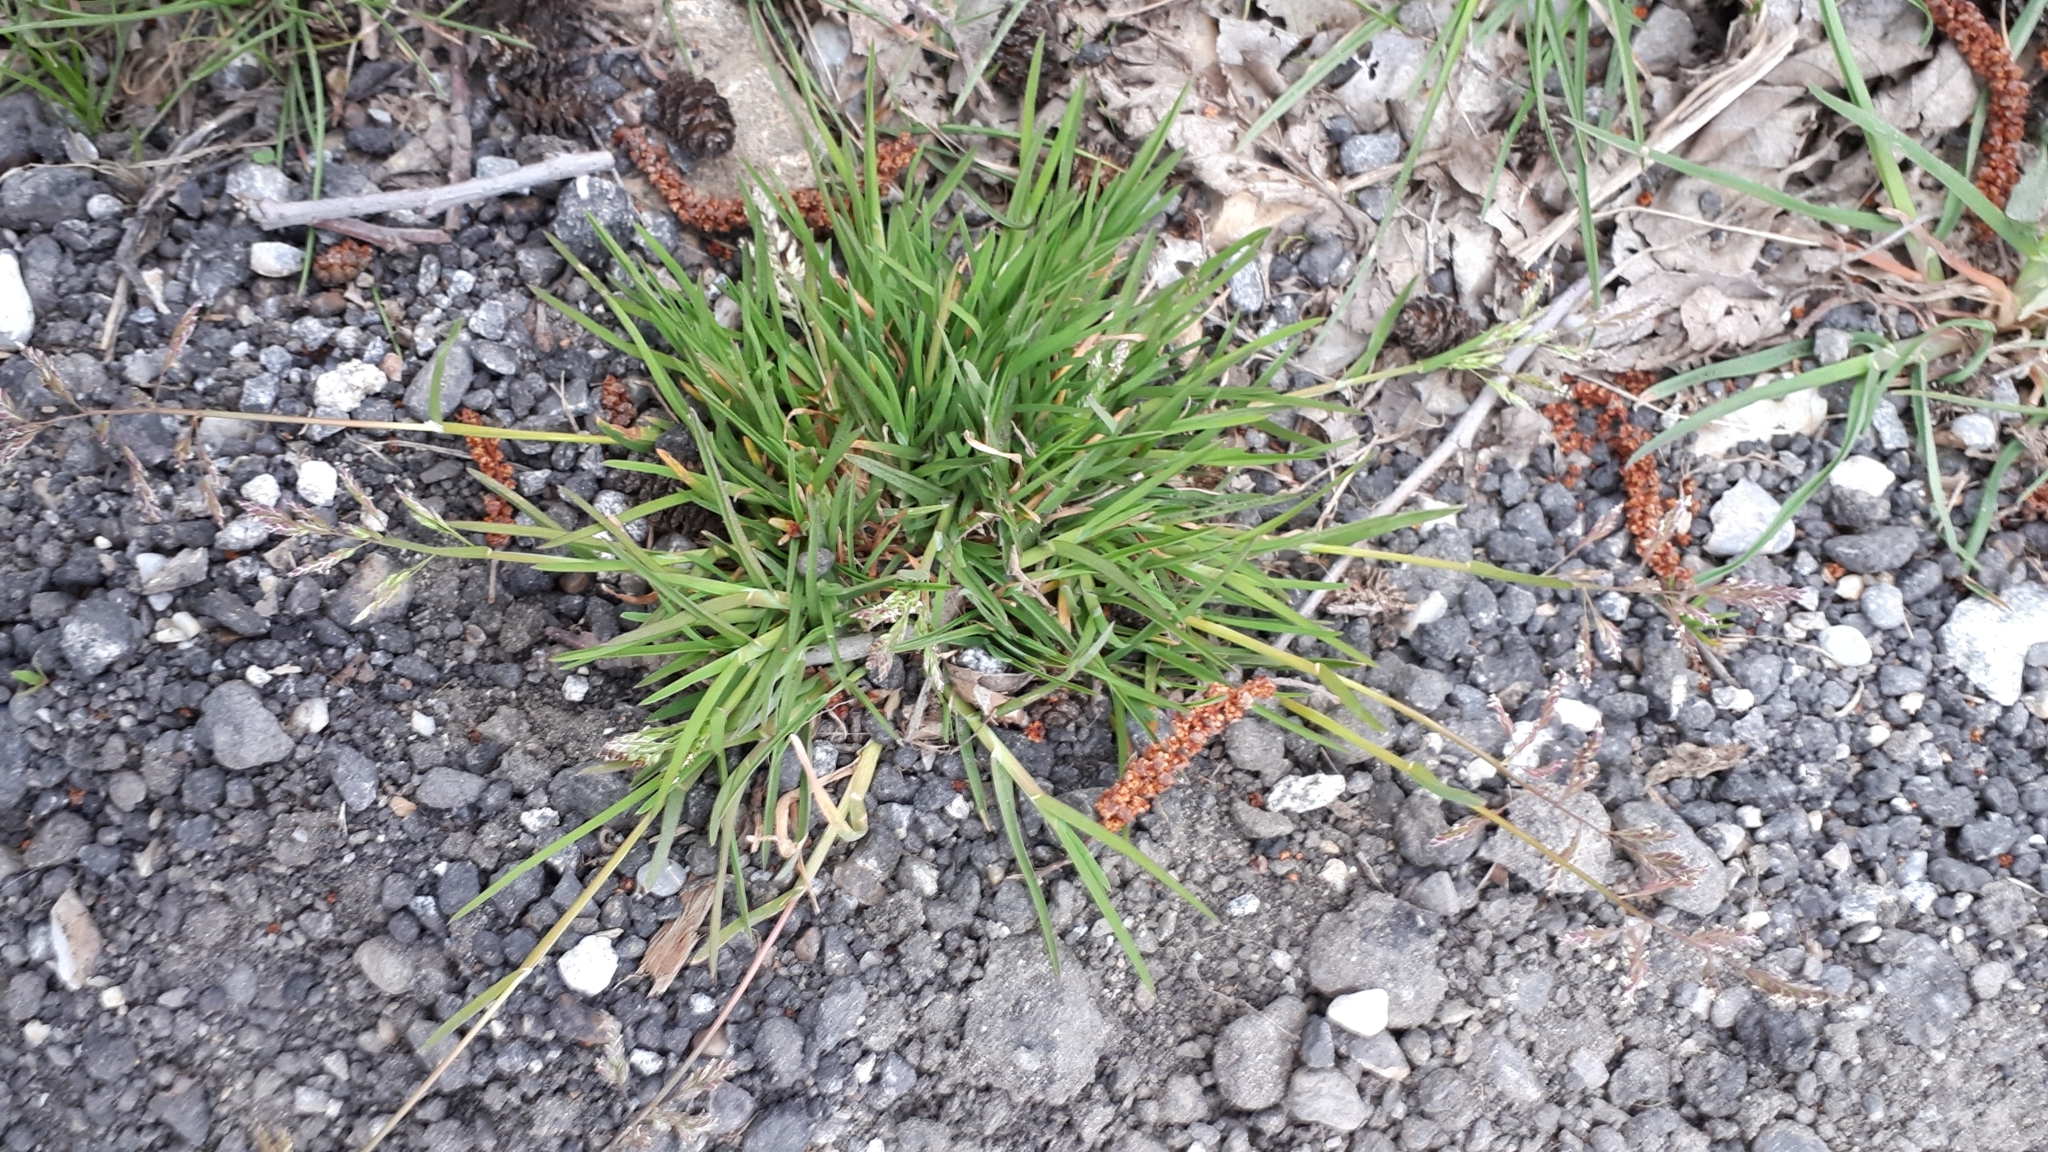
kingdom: Plantae
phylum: Tracheophyta
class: Liliopsida
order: Poales
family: Poaceae
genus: Poa
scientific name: Poa annua
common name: Annual bluegrass
